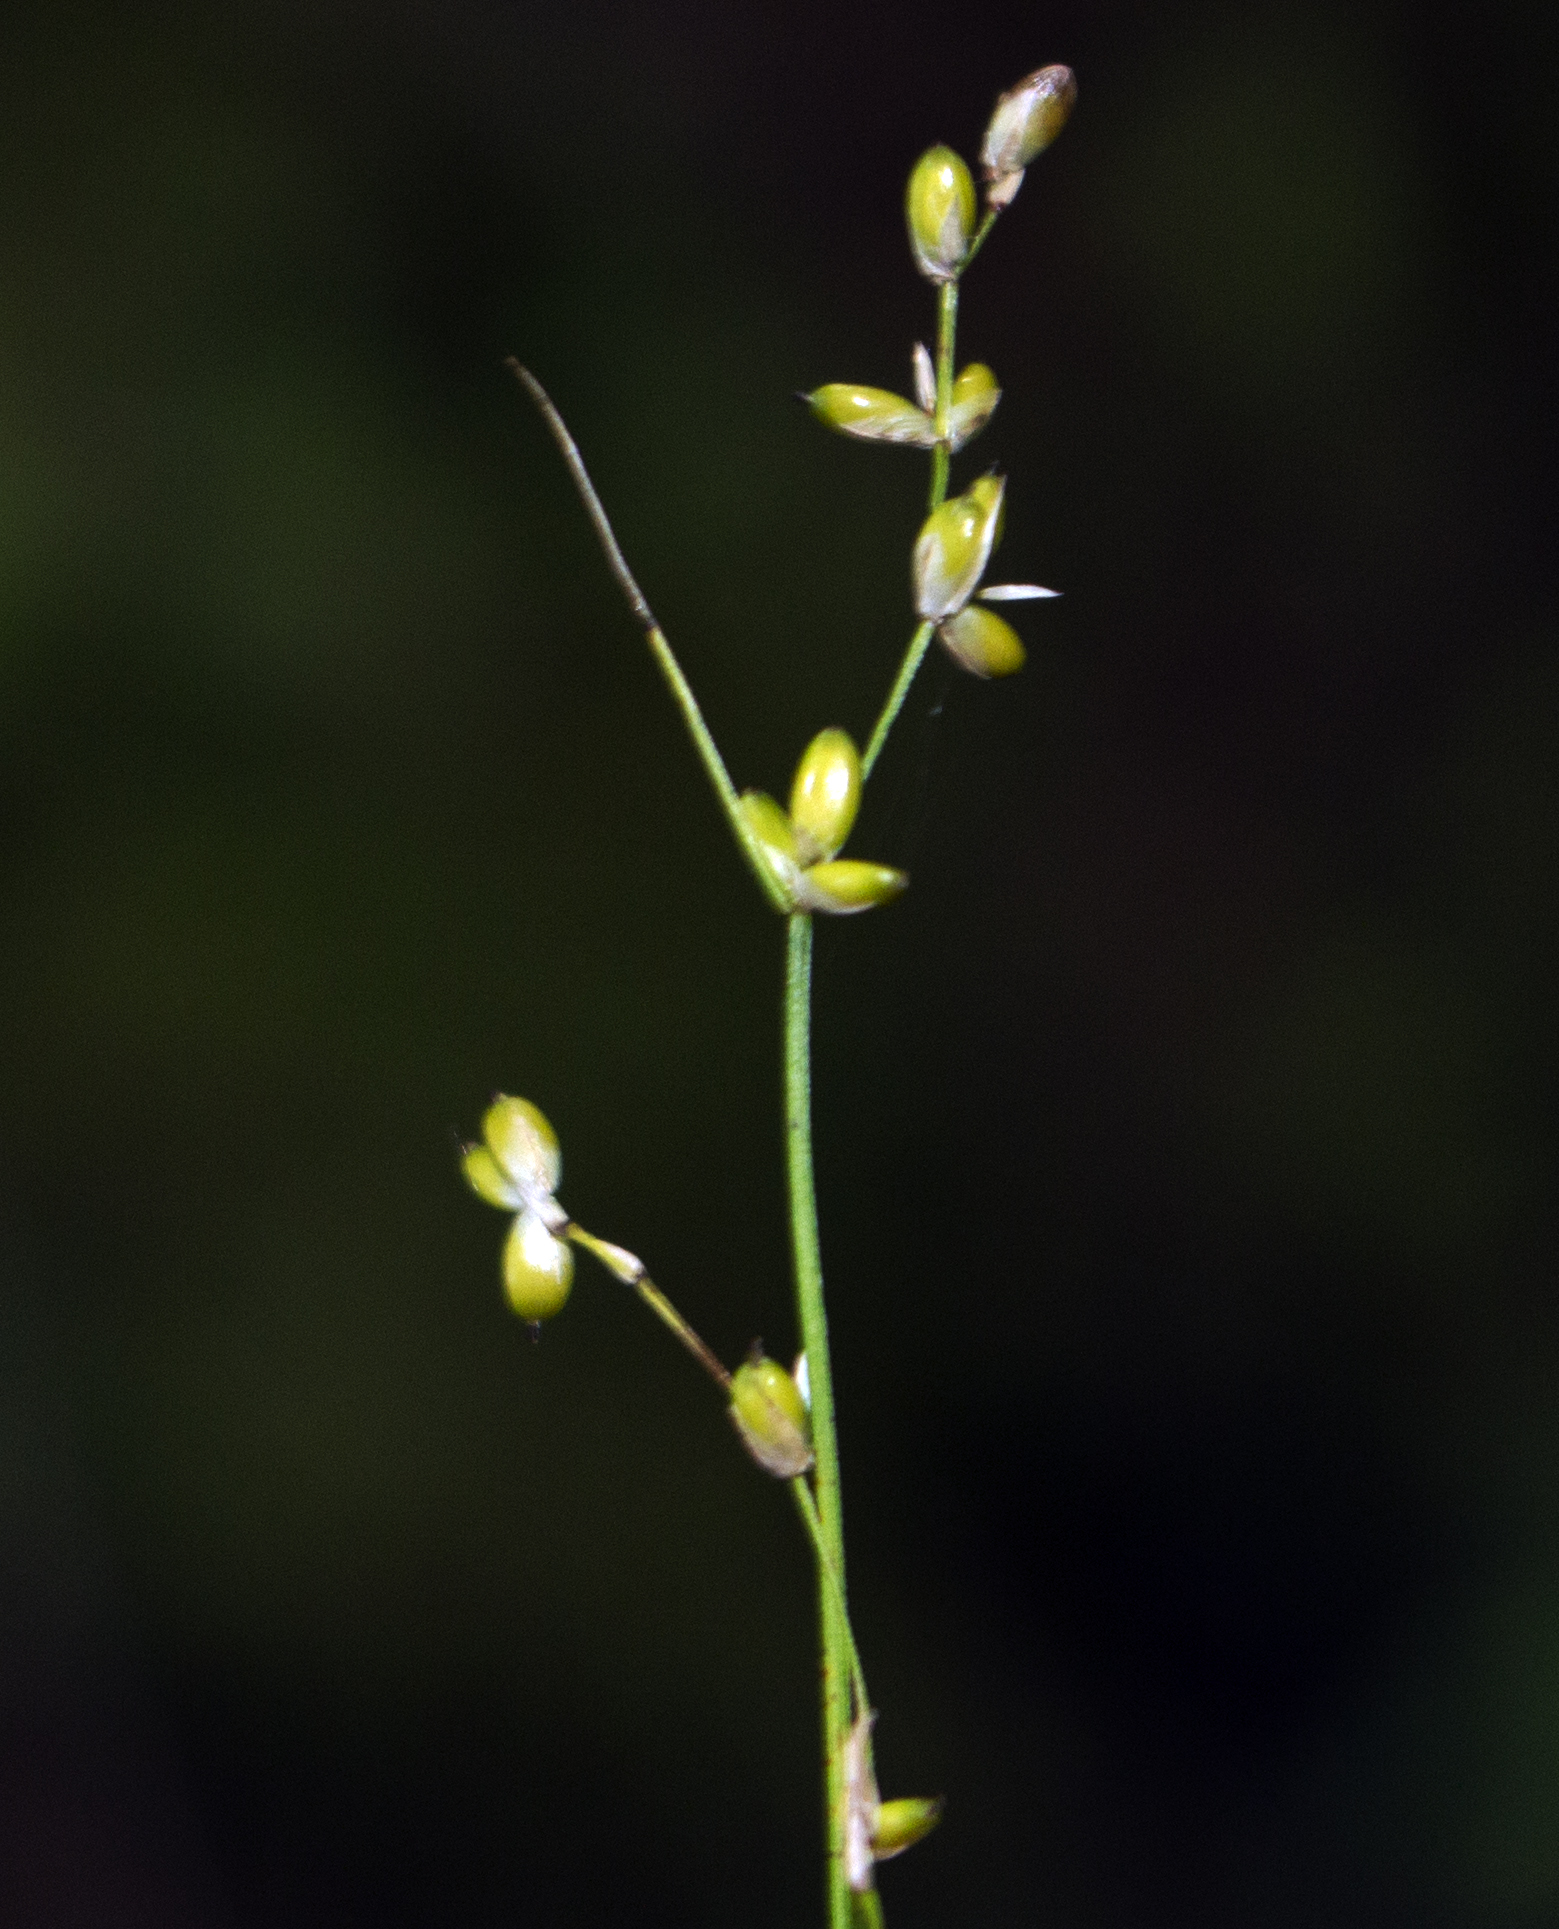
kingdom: Plantae
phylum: Tracheophyta
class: Liliopsida
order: Poales
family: Cyperaceae
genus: Carex
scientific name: Carex disperma
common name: Short-leaved sedge
